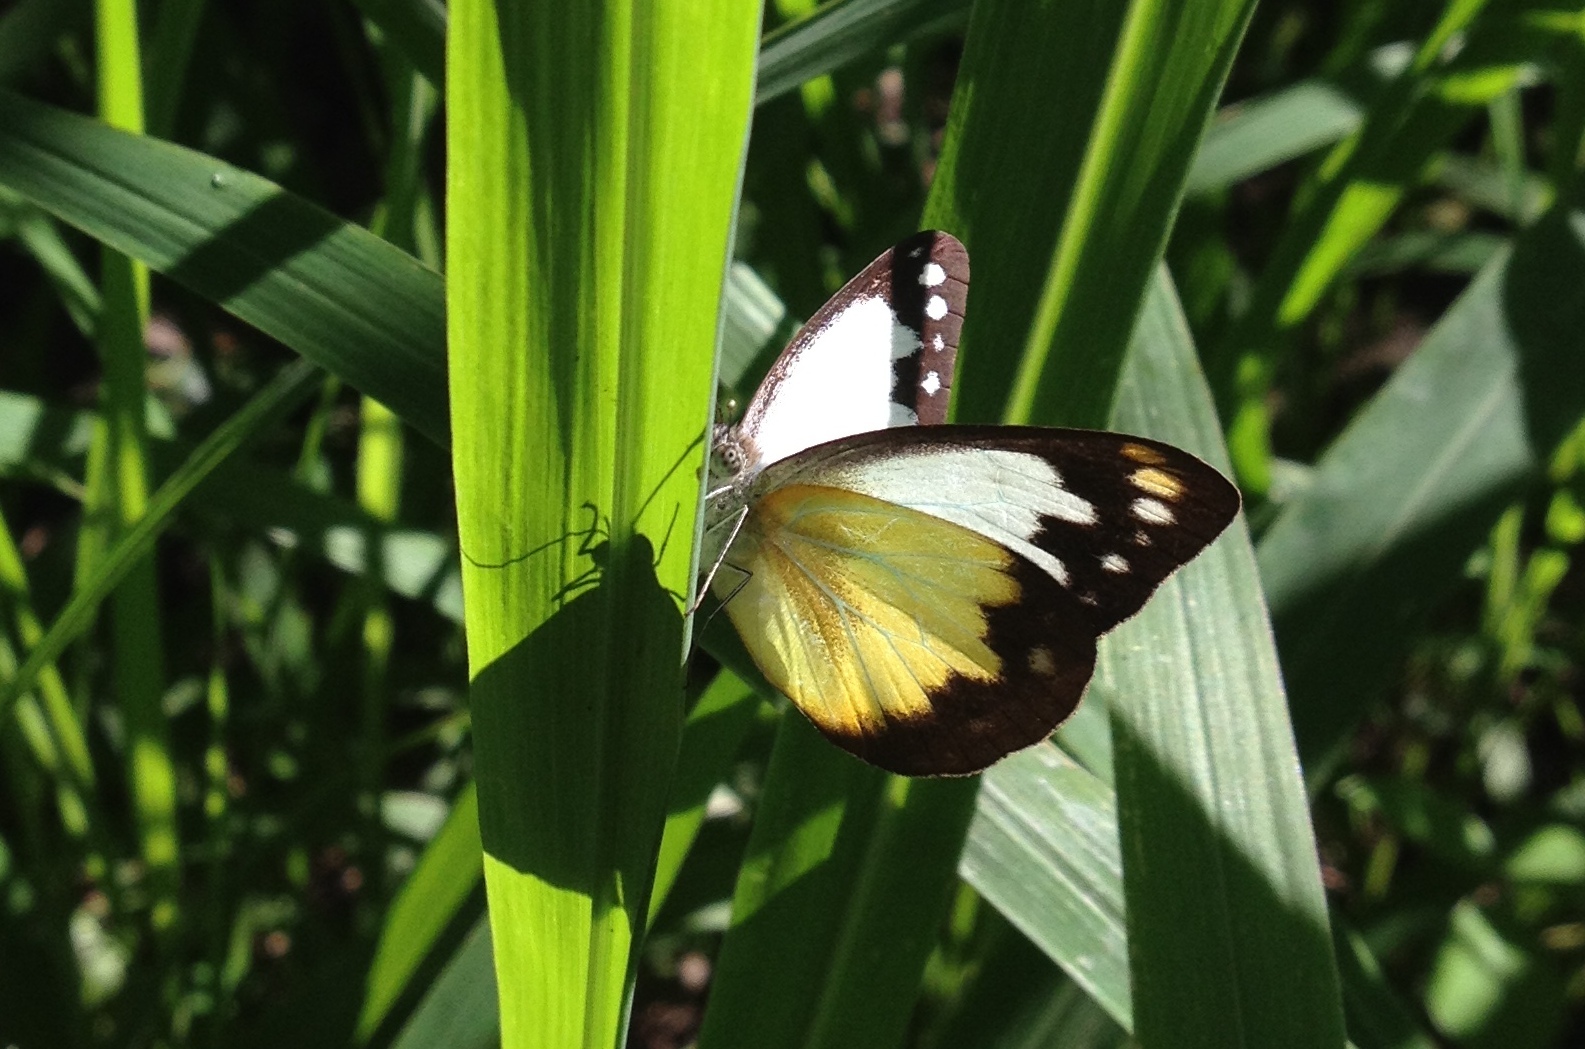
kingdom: Animalia
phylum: Arthropoda
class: Insecta
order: Lepidoptera
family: Pieridae
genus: Cepora
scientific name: Cepora perimale
